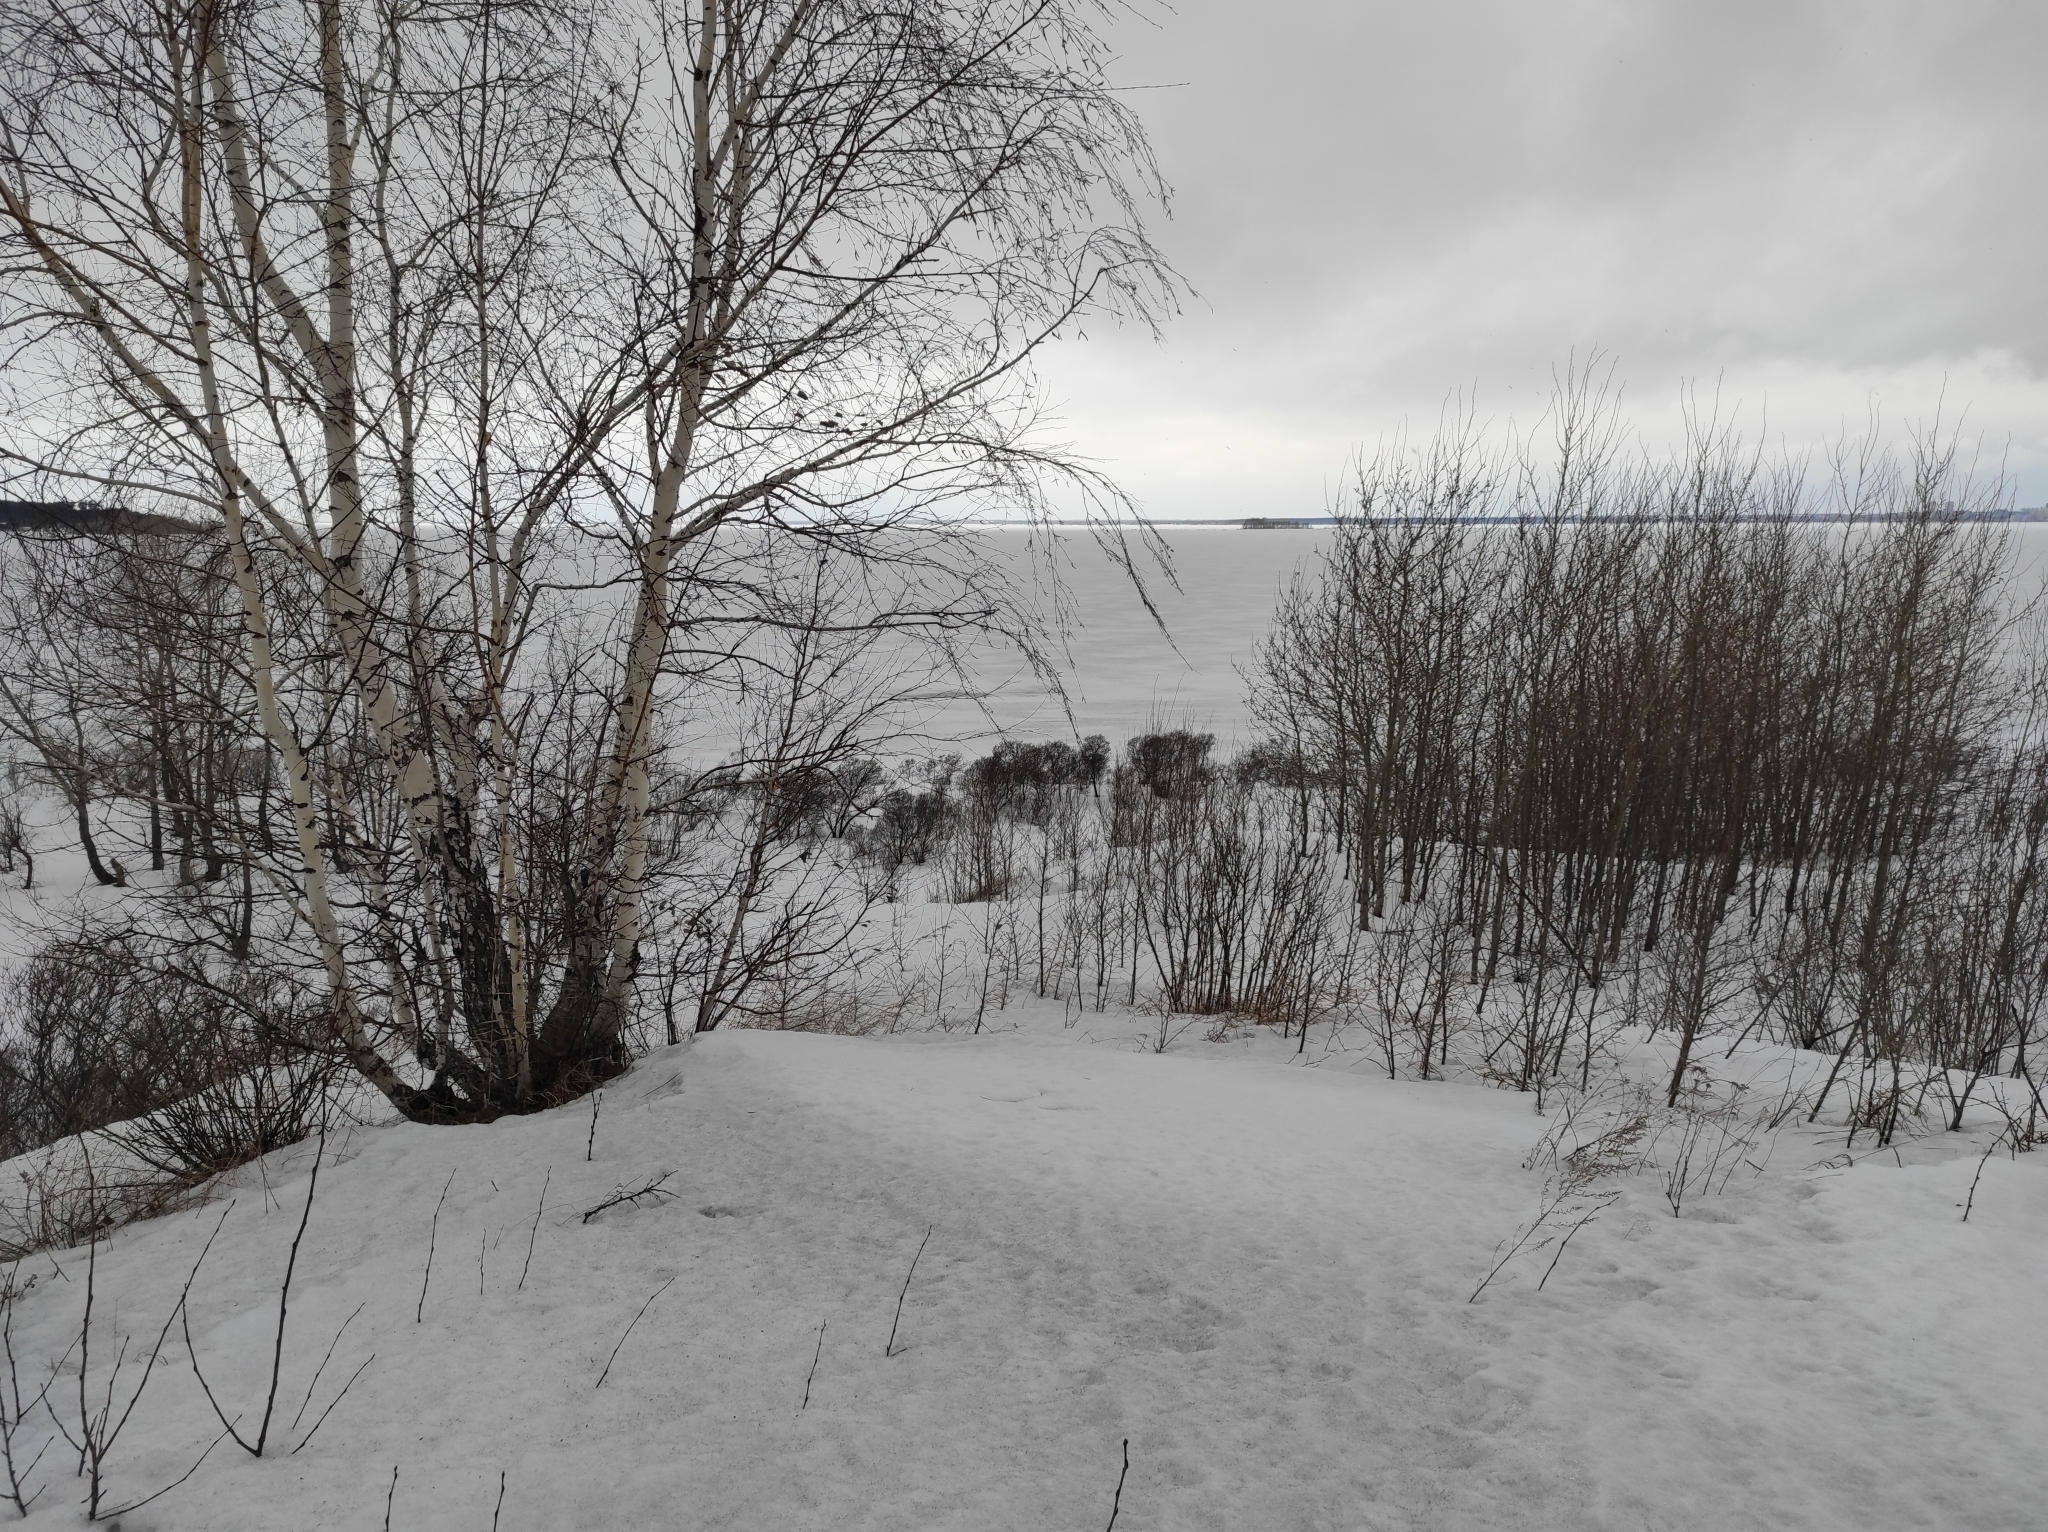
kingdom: Plantae
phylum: Tracheophyta
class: Magnoliopsida
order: Fagales
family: Betulaceae
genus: Betula
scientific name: Betula pendula
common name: Silver birch
